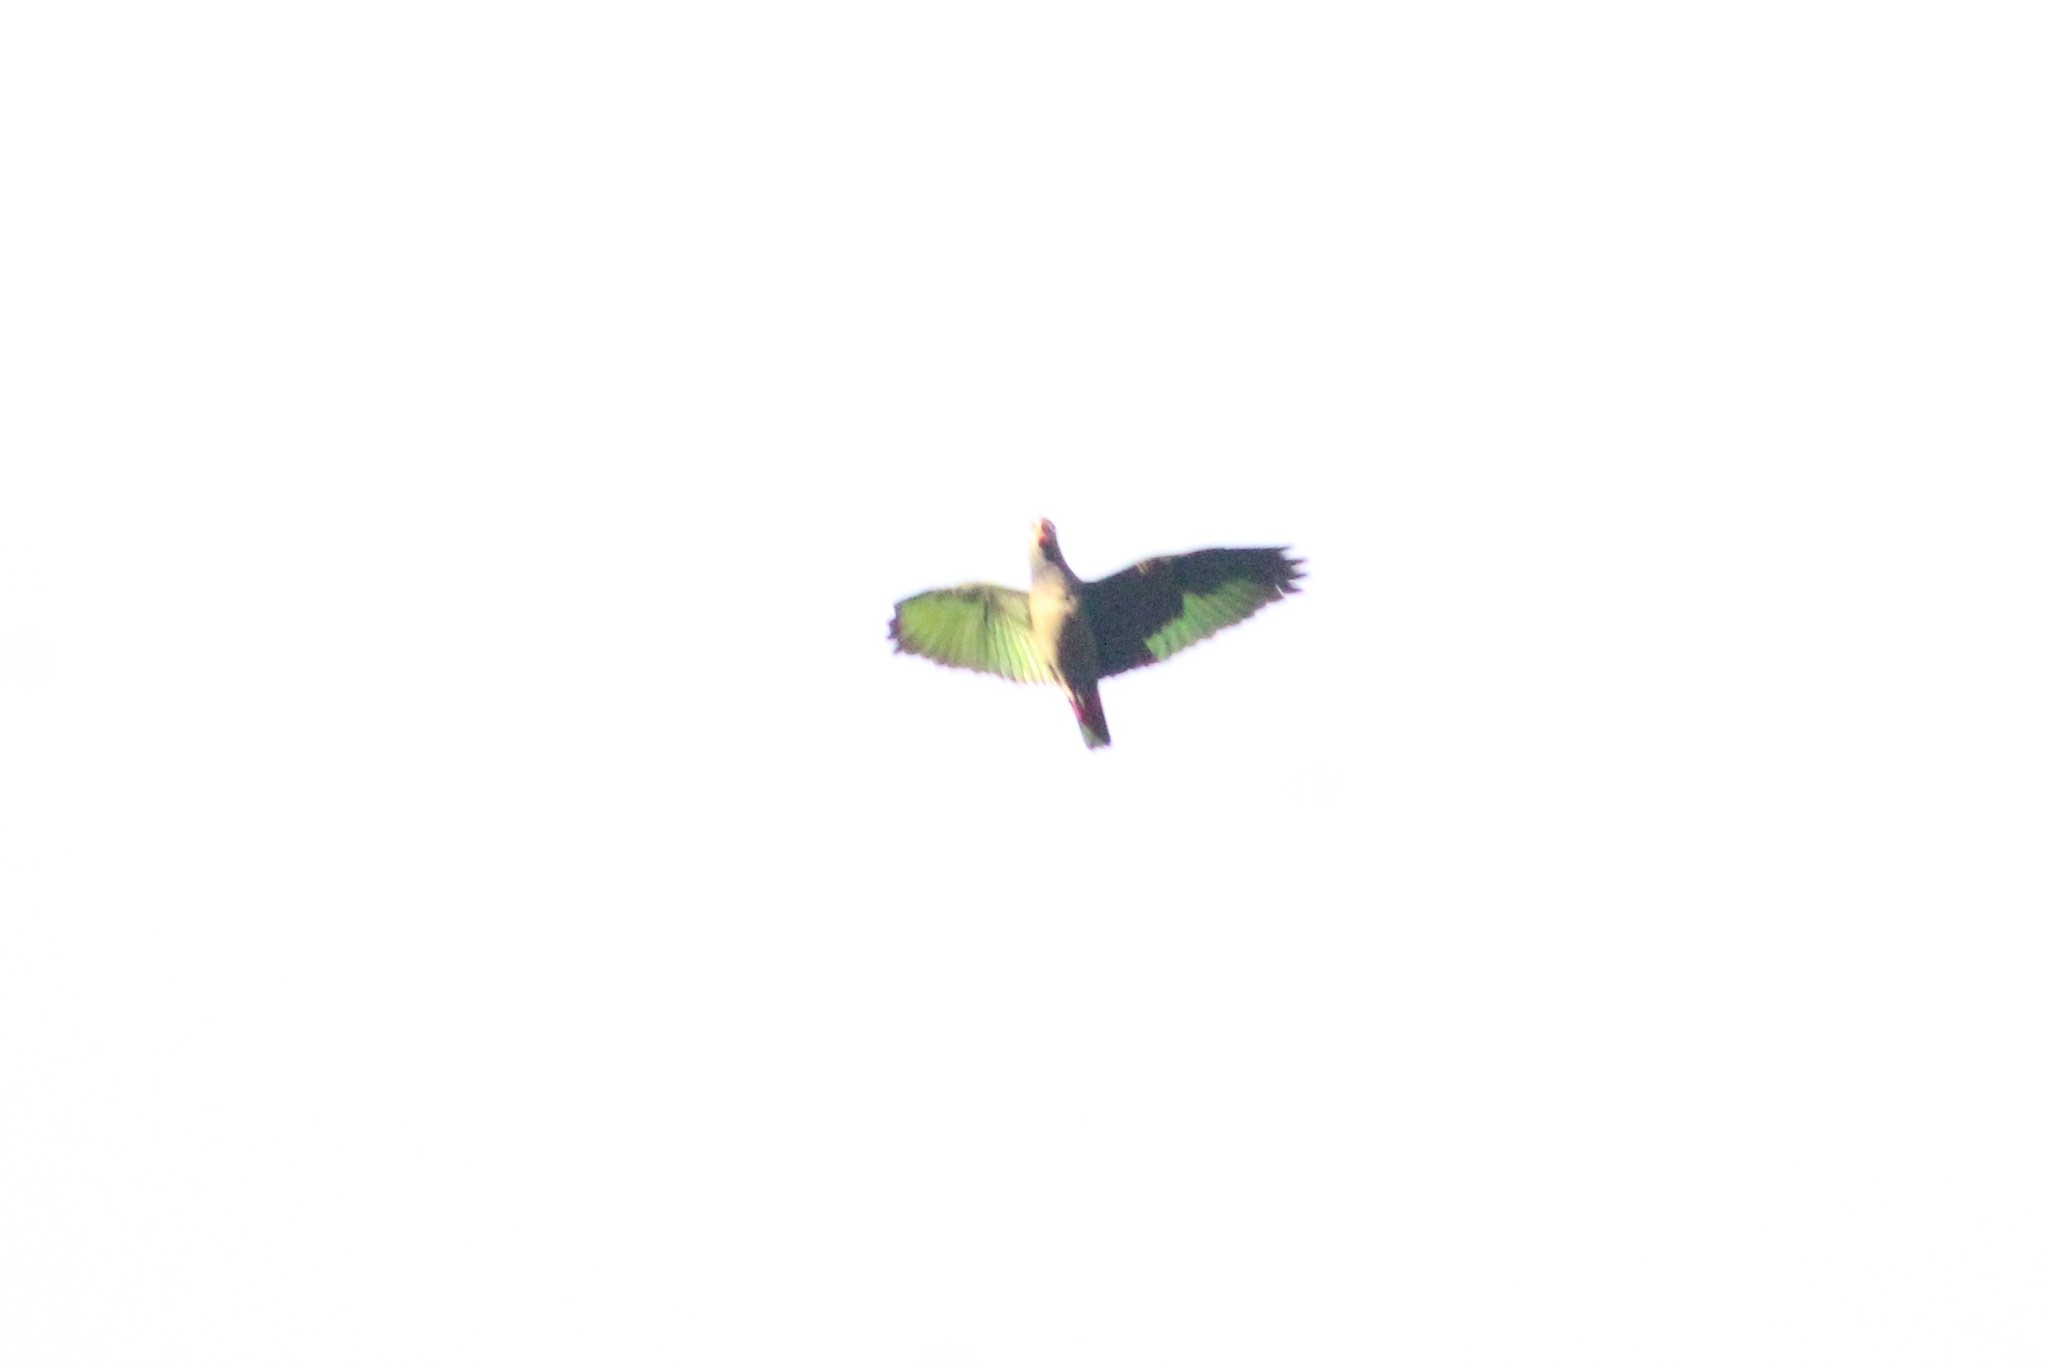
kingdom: Animalia
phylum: Chordata
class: Aves
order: Psittaciformes
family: Psittacidae
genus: Pionus
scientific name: Pionus menstruus
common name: Blue-headed parrot
